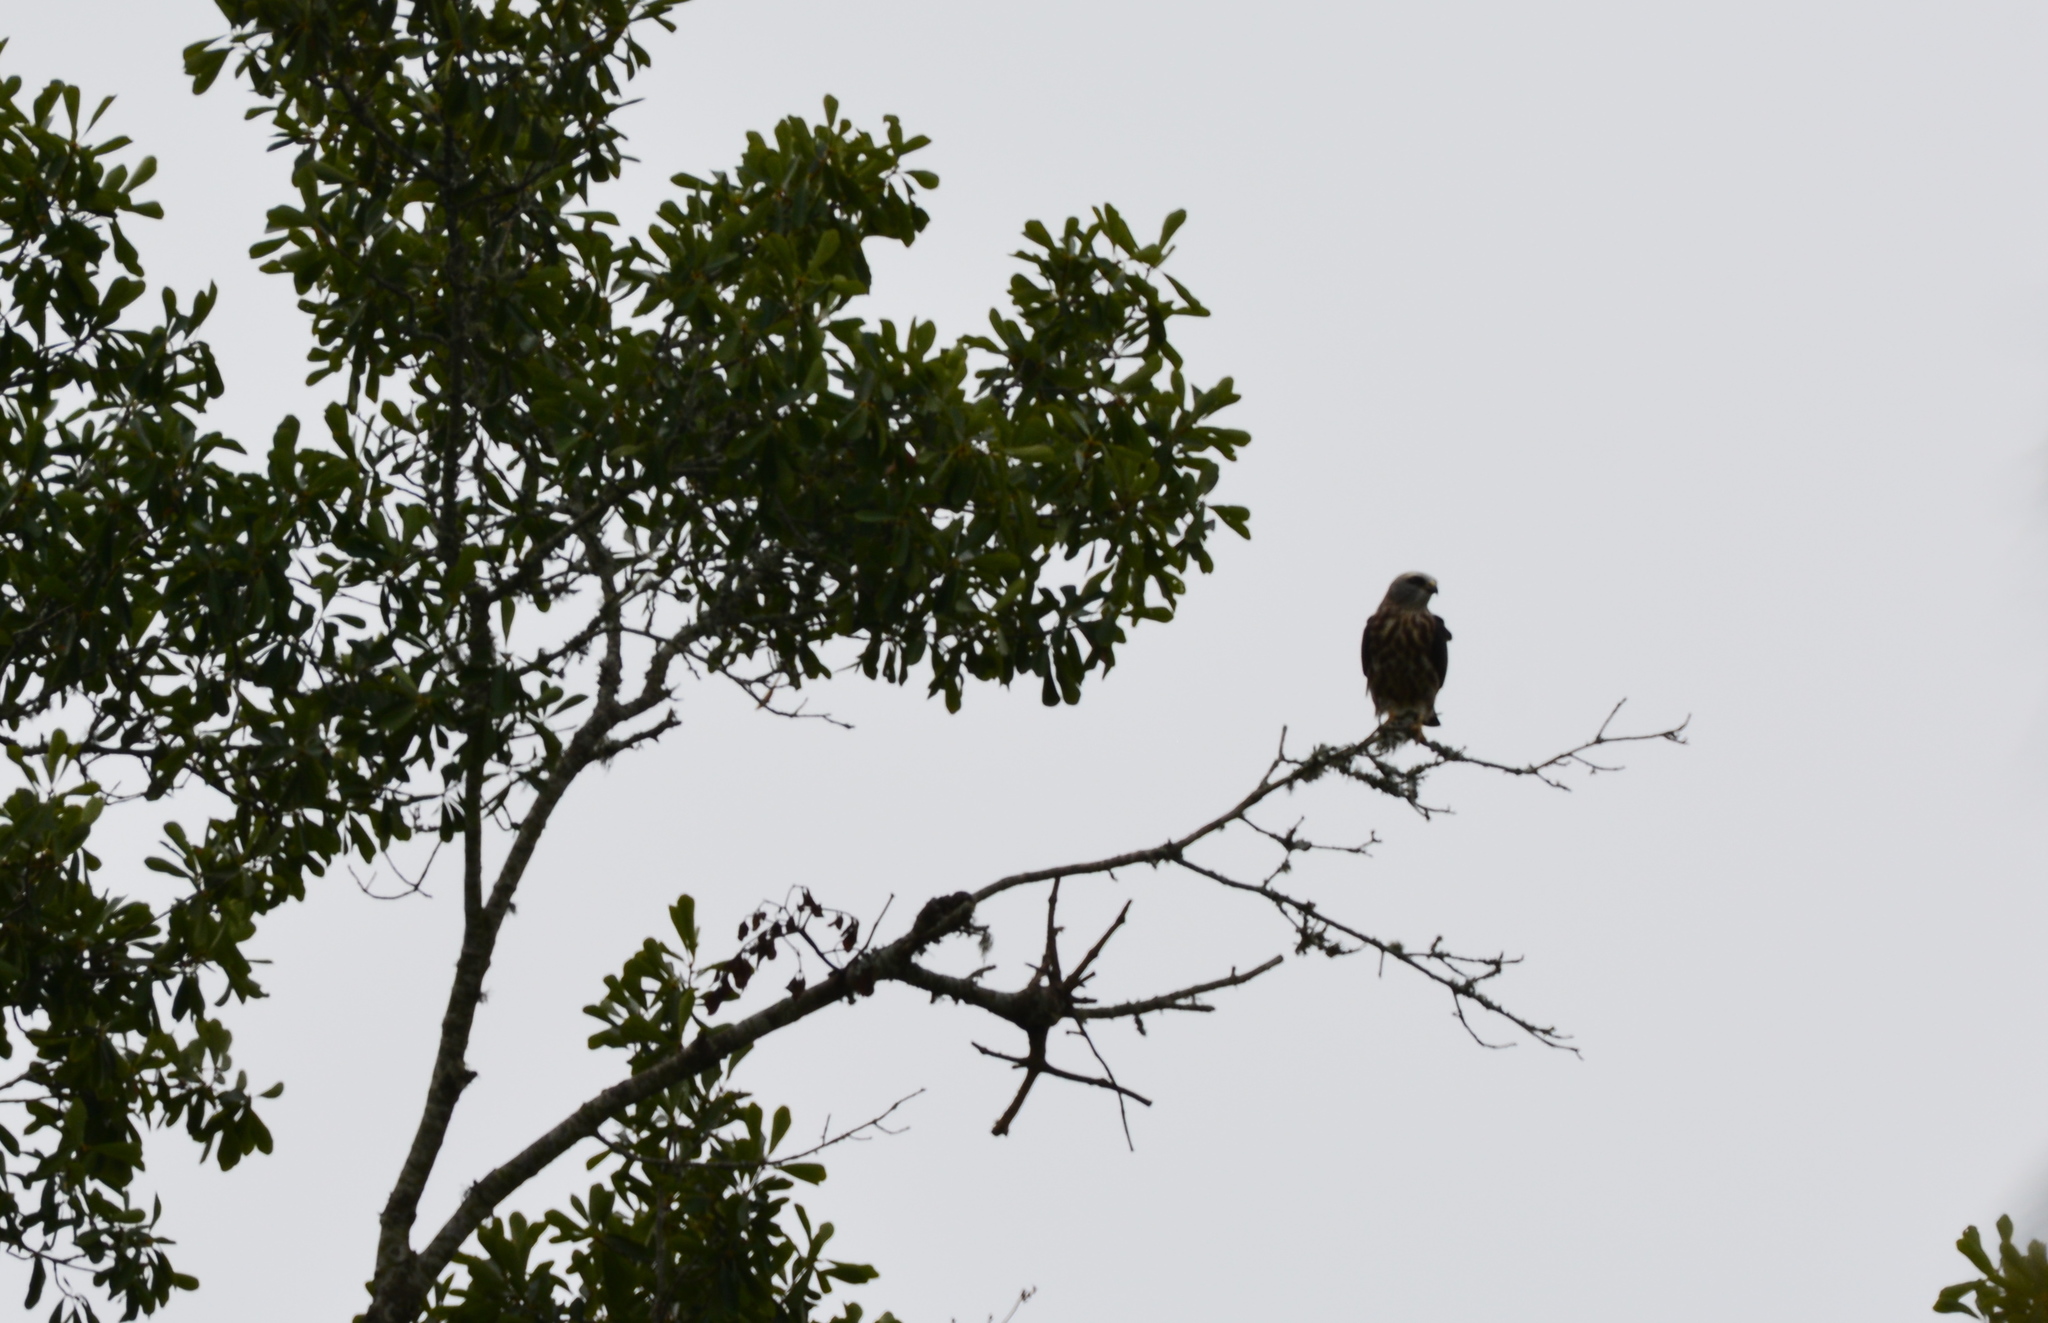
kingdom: Animalia
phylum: Chordata
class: Aves
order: Accipitriformes
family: Accipitridae
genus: Ictinia
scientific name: Ictinia mississippiensis
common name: Mississippi kite
